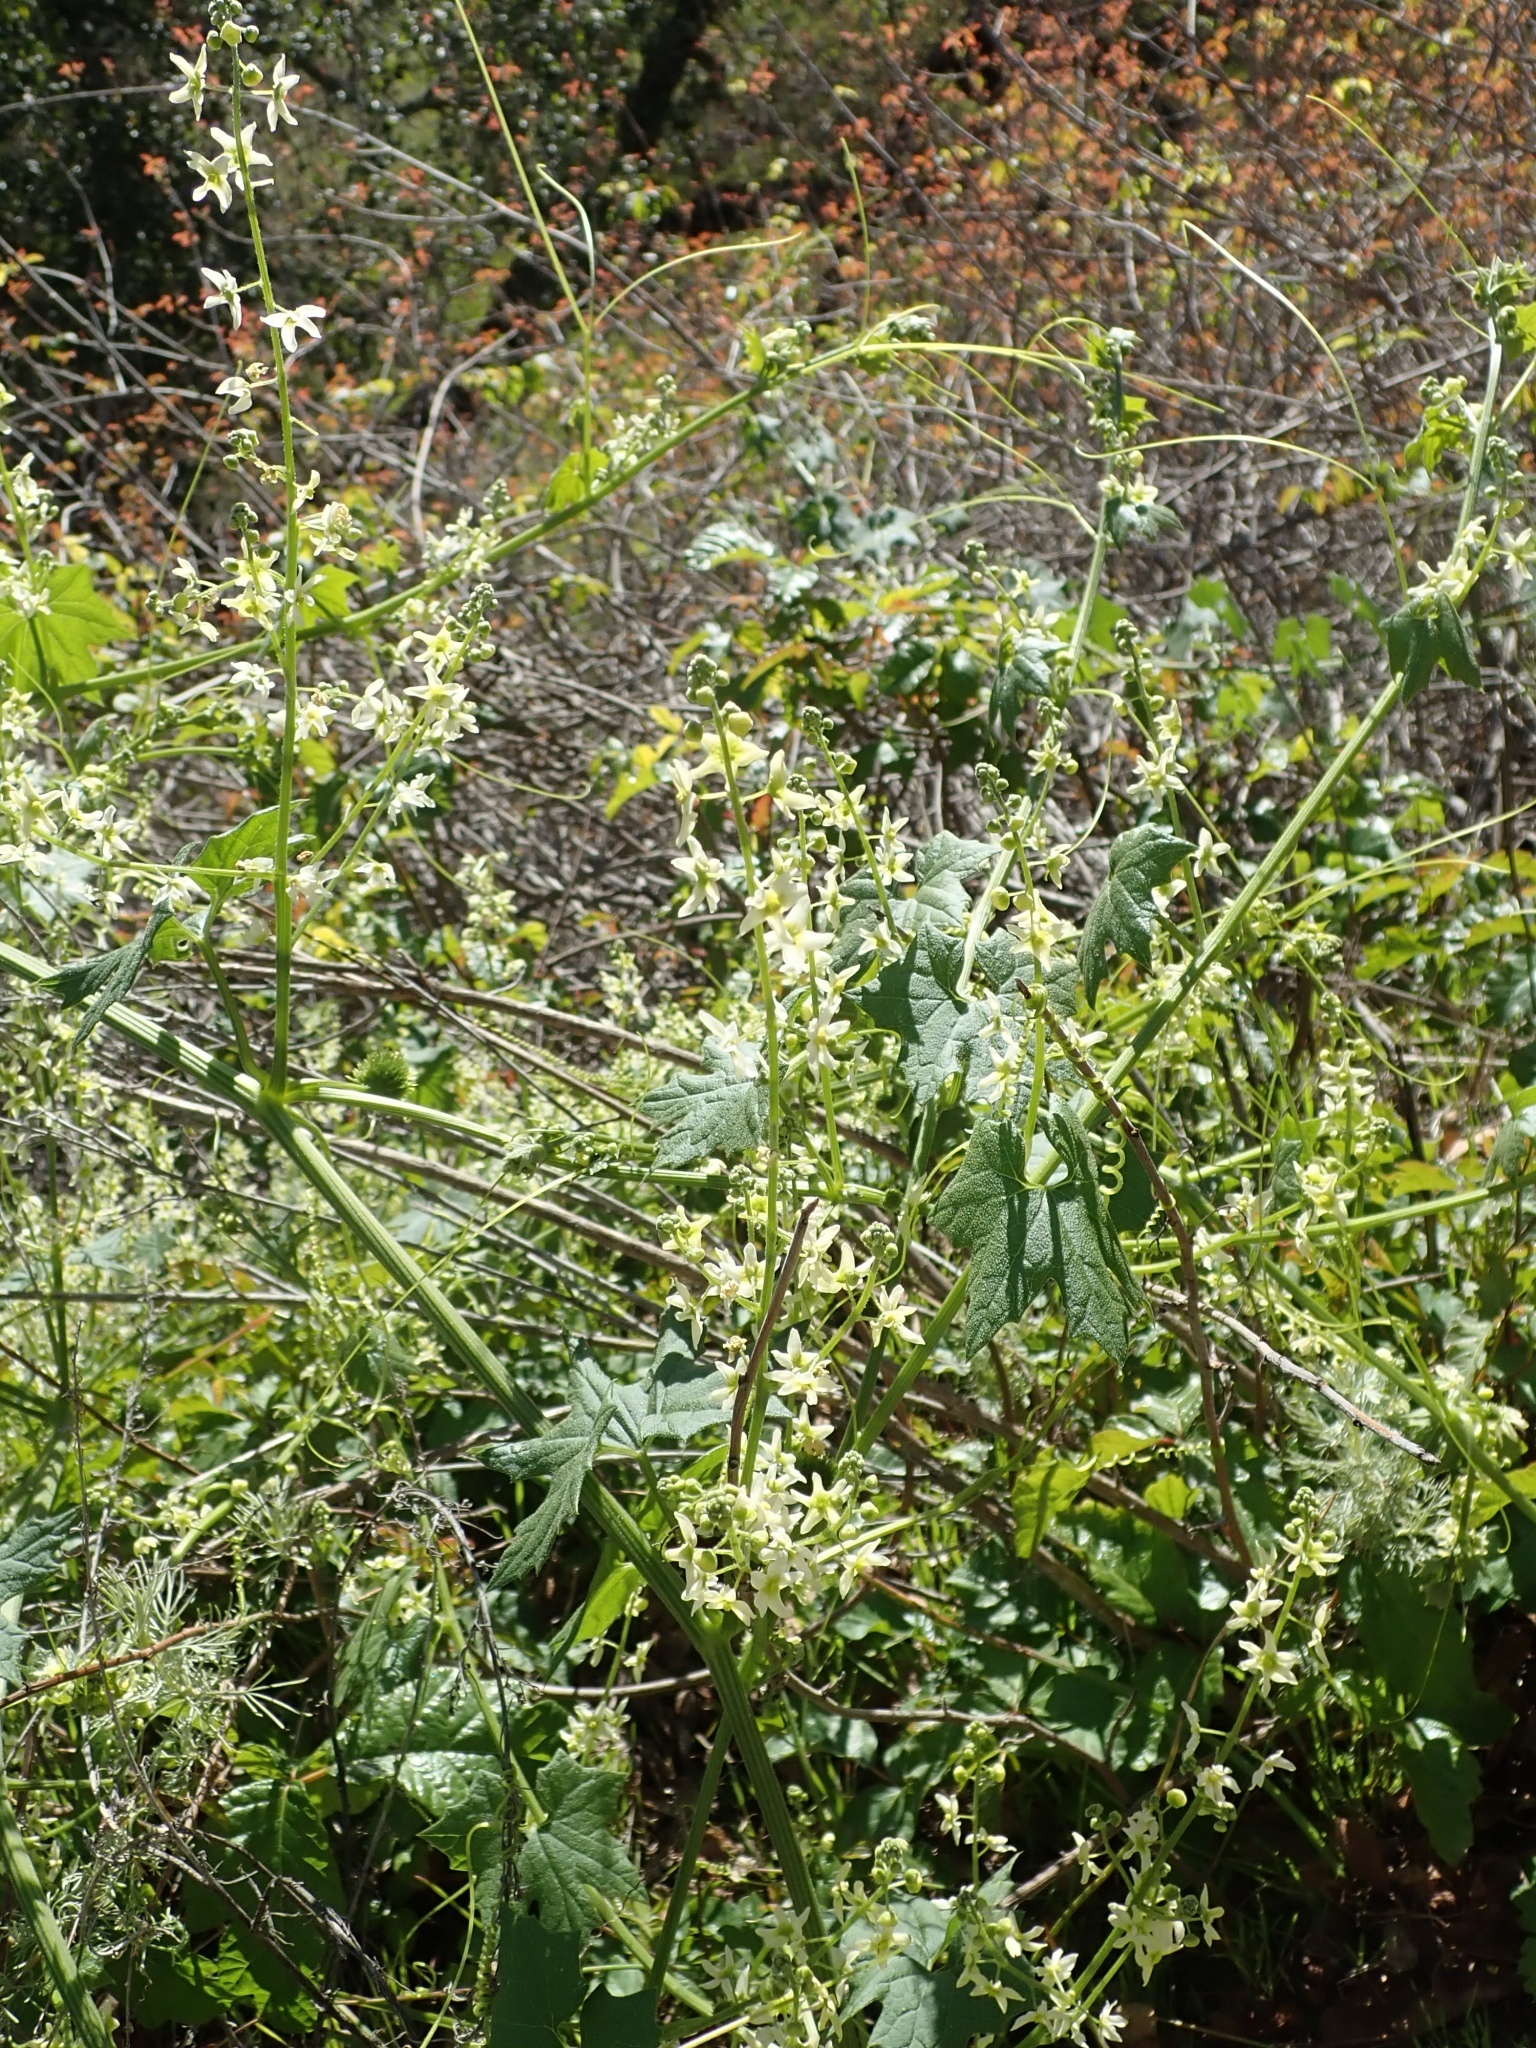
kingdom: Plantae
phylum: Tracheophyta
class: Magnoliopsida
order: Cucurbitales
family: Cucurbitaceae
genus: Marah
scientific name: Marah fabacea
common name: California manroot
